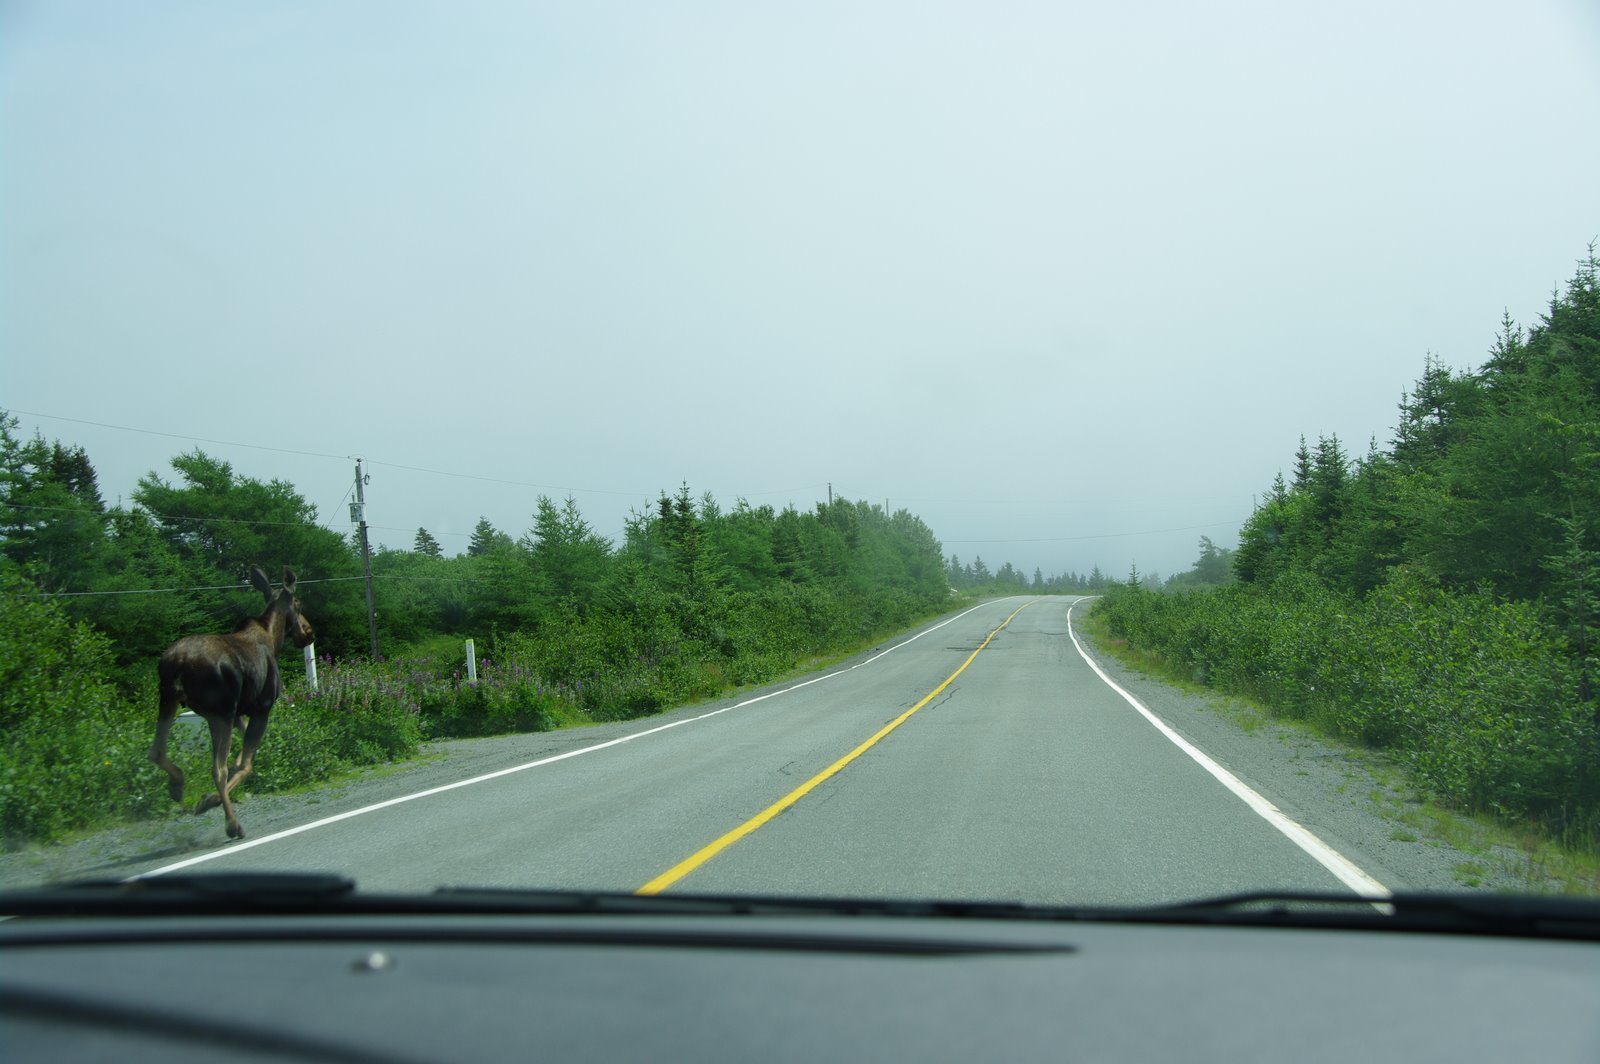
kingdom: Animalia
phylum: Chordata
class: Mammalia
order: Artiodactyla
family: Cervidae
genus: Alces
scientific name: Alces alces
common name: Moose
